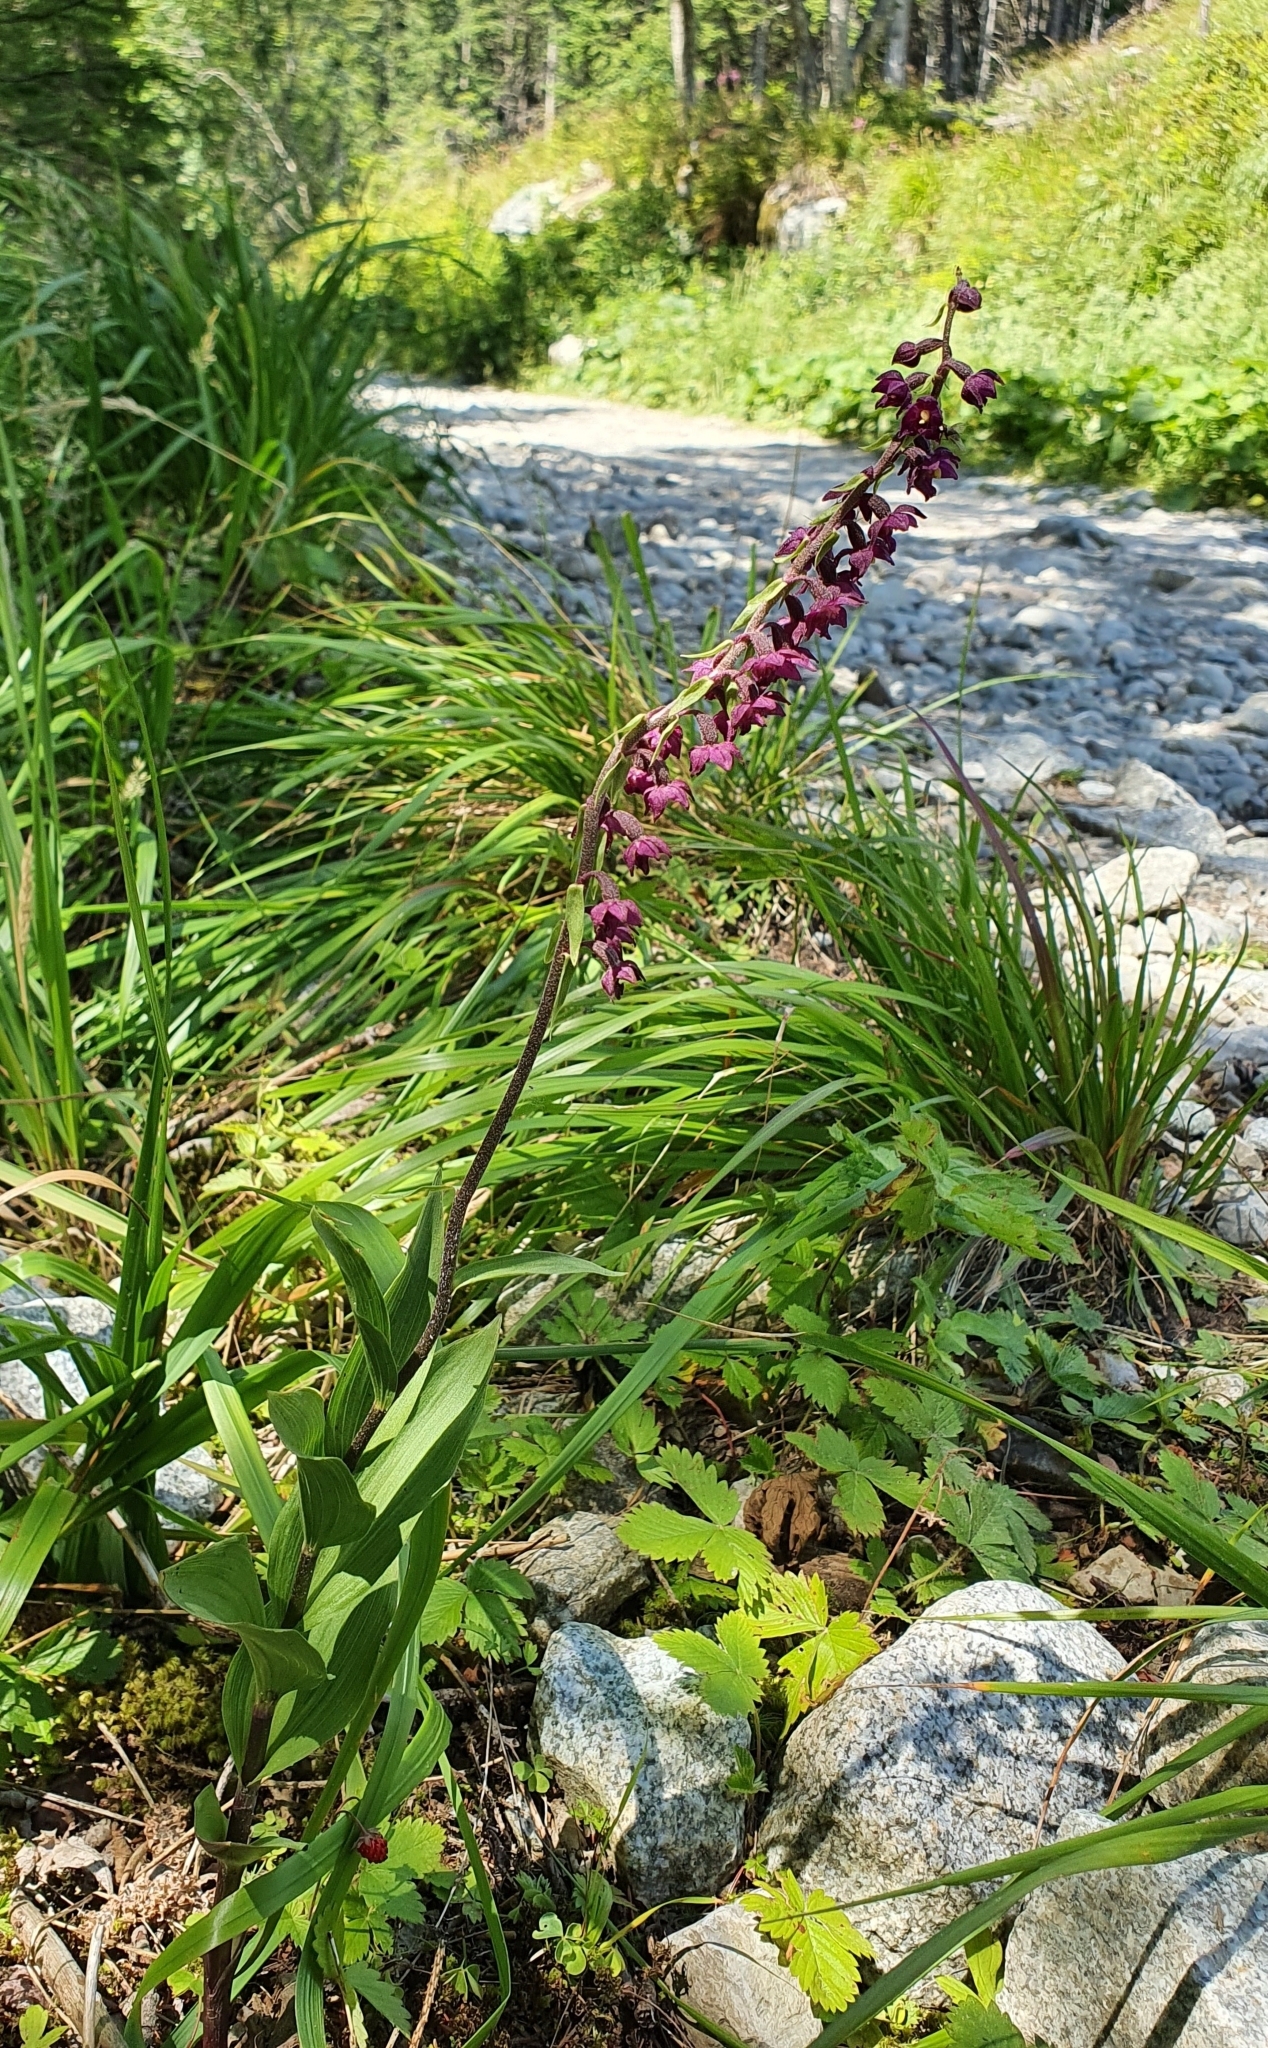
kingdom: Plantae
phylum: Tracheophyta
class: Liliopsida
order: Asparagales
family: Orchidaceae
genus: Epipactis
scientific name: Epipactis atrorubens
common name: Dark-red helleborine
